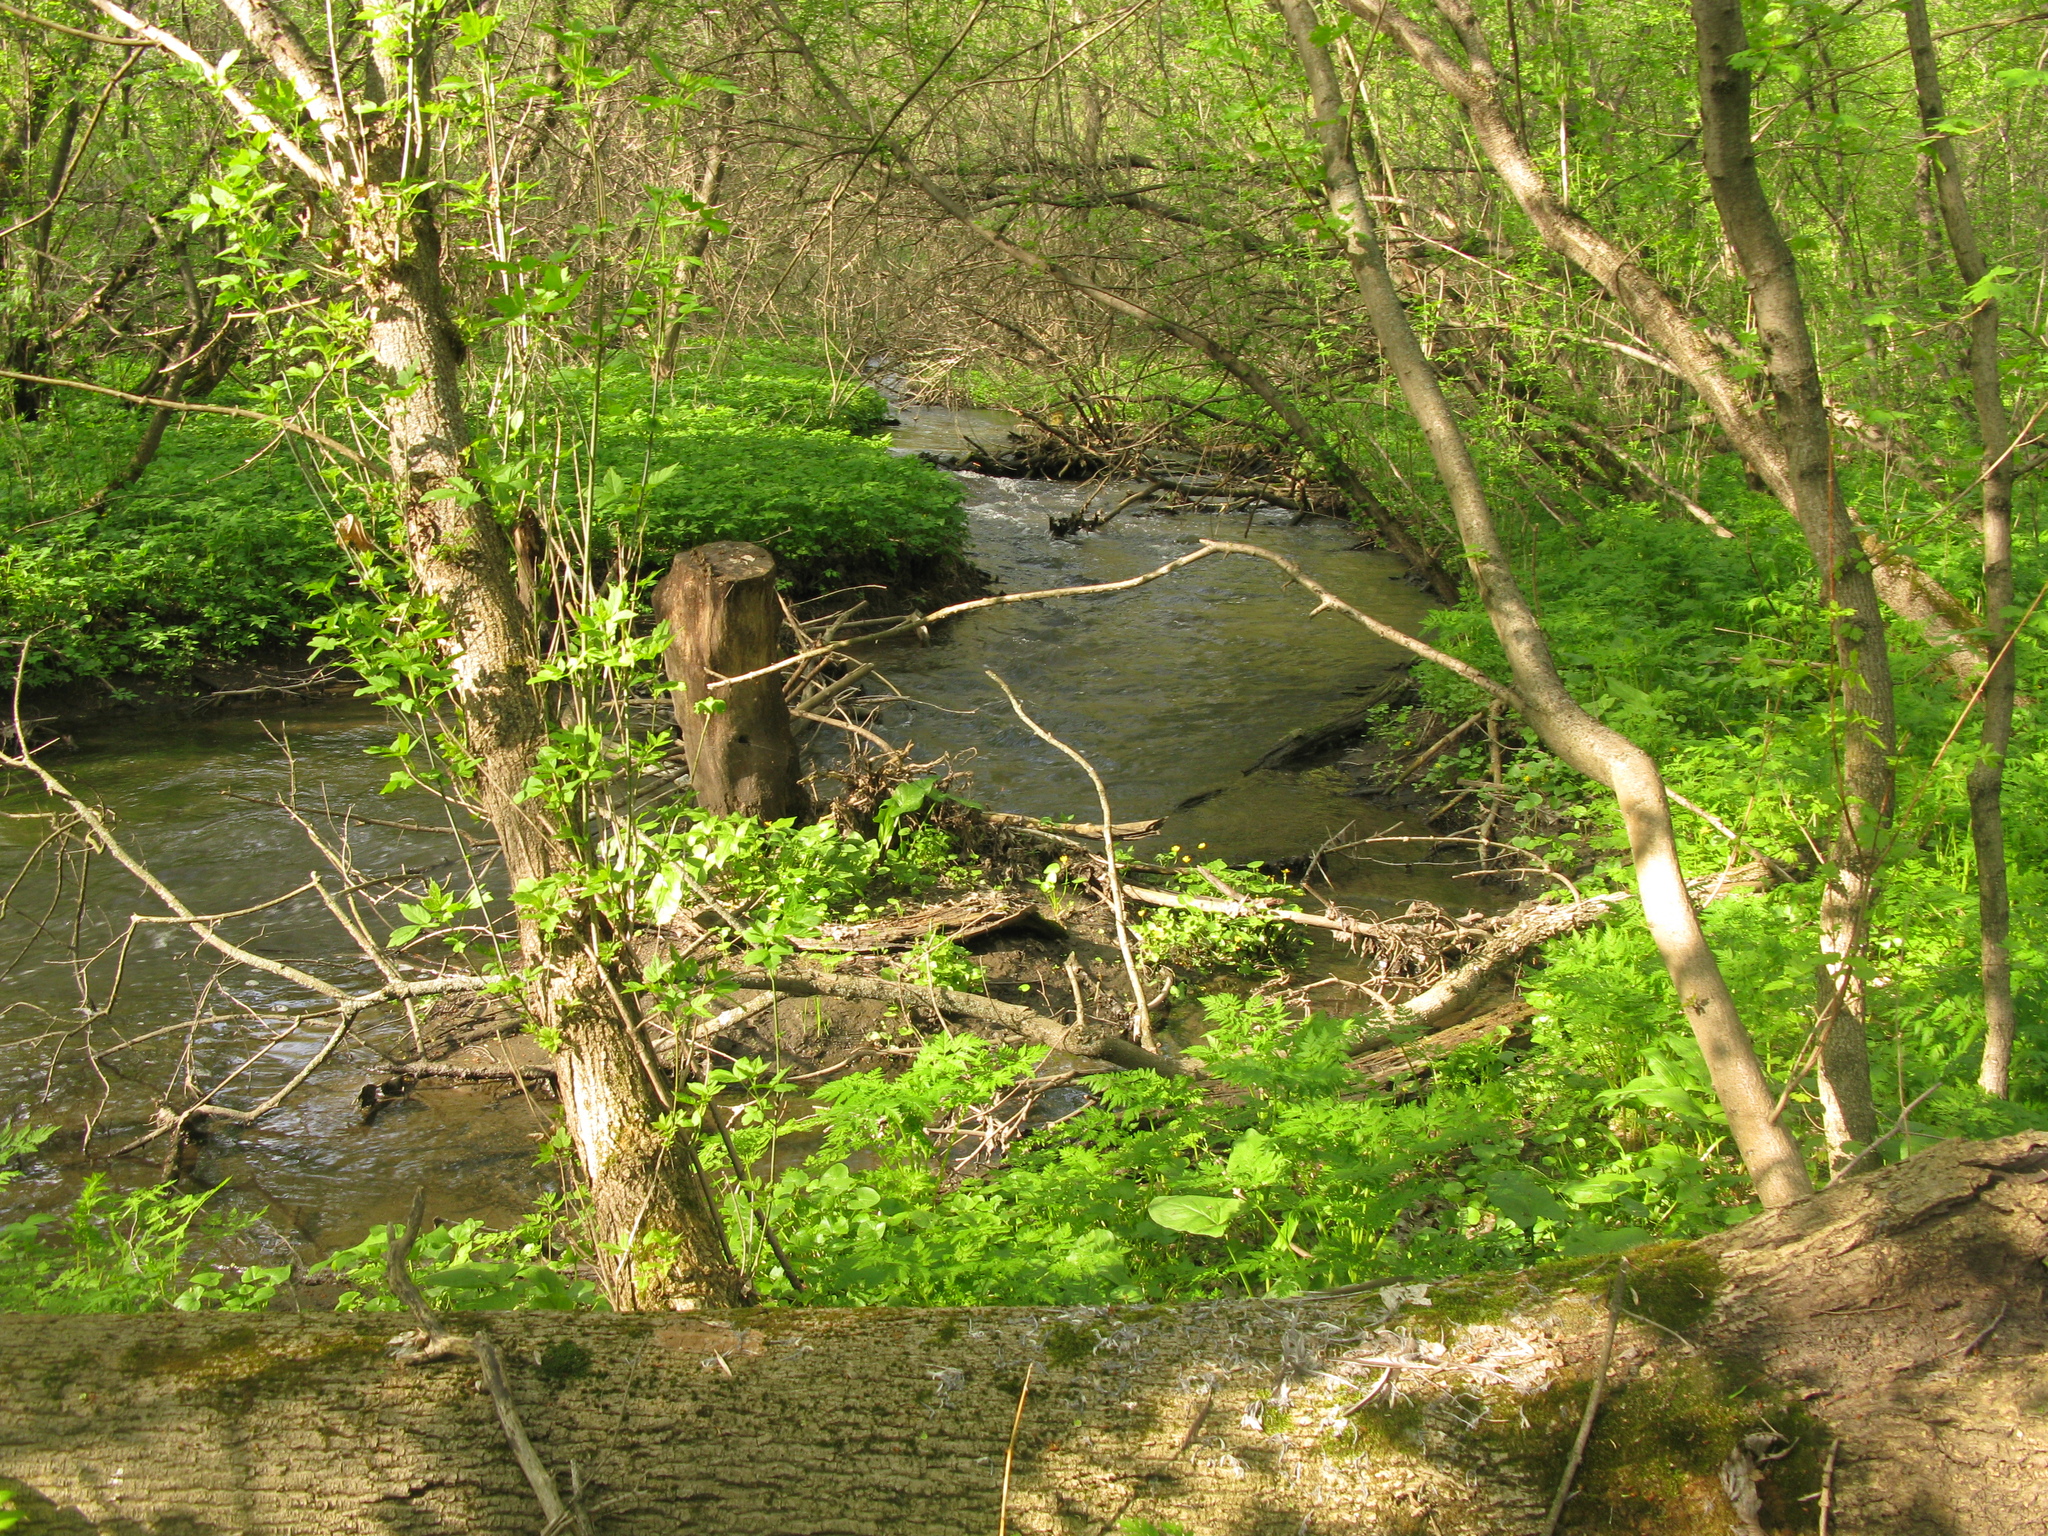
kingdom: Plantae
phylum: Tracheophyta
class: Magnoliopsida
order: Sapindales
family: Sapindaceae
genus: Acer
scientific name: Acer negundo
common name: Ashleaf maple
